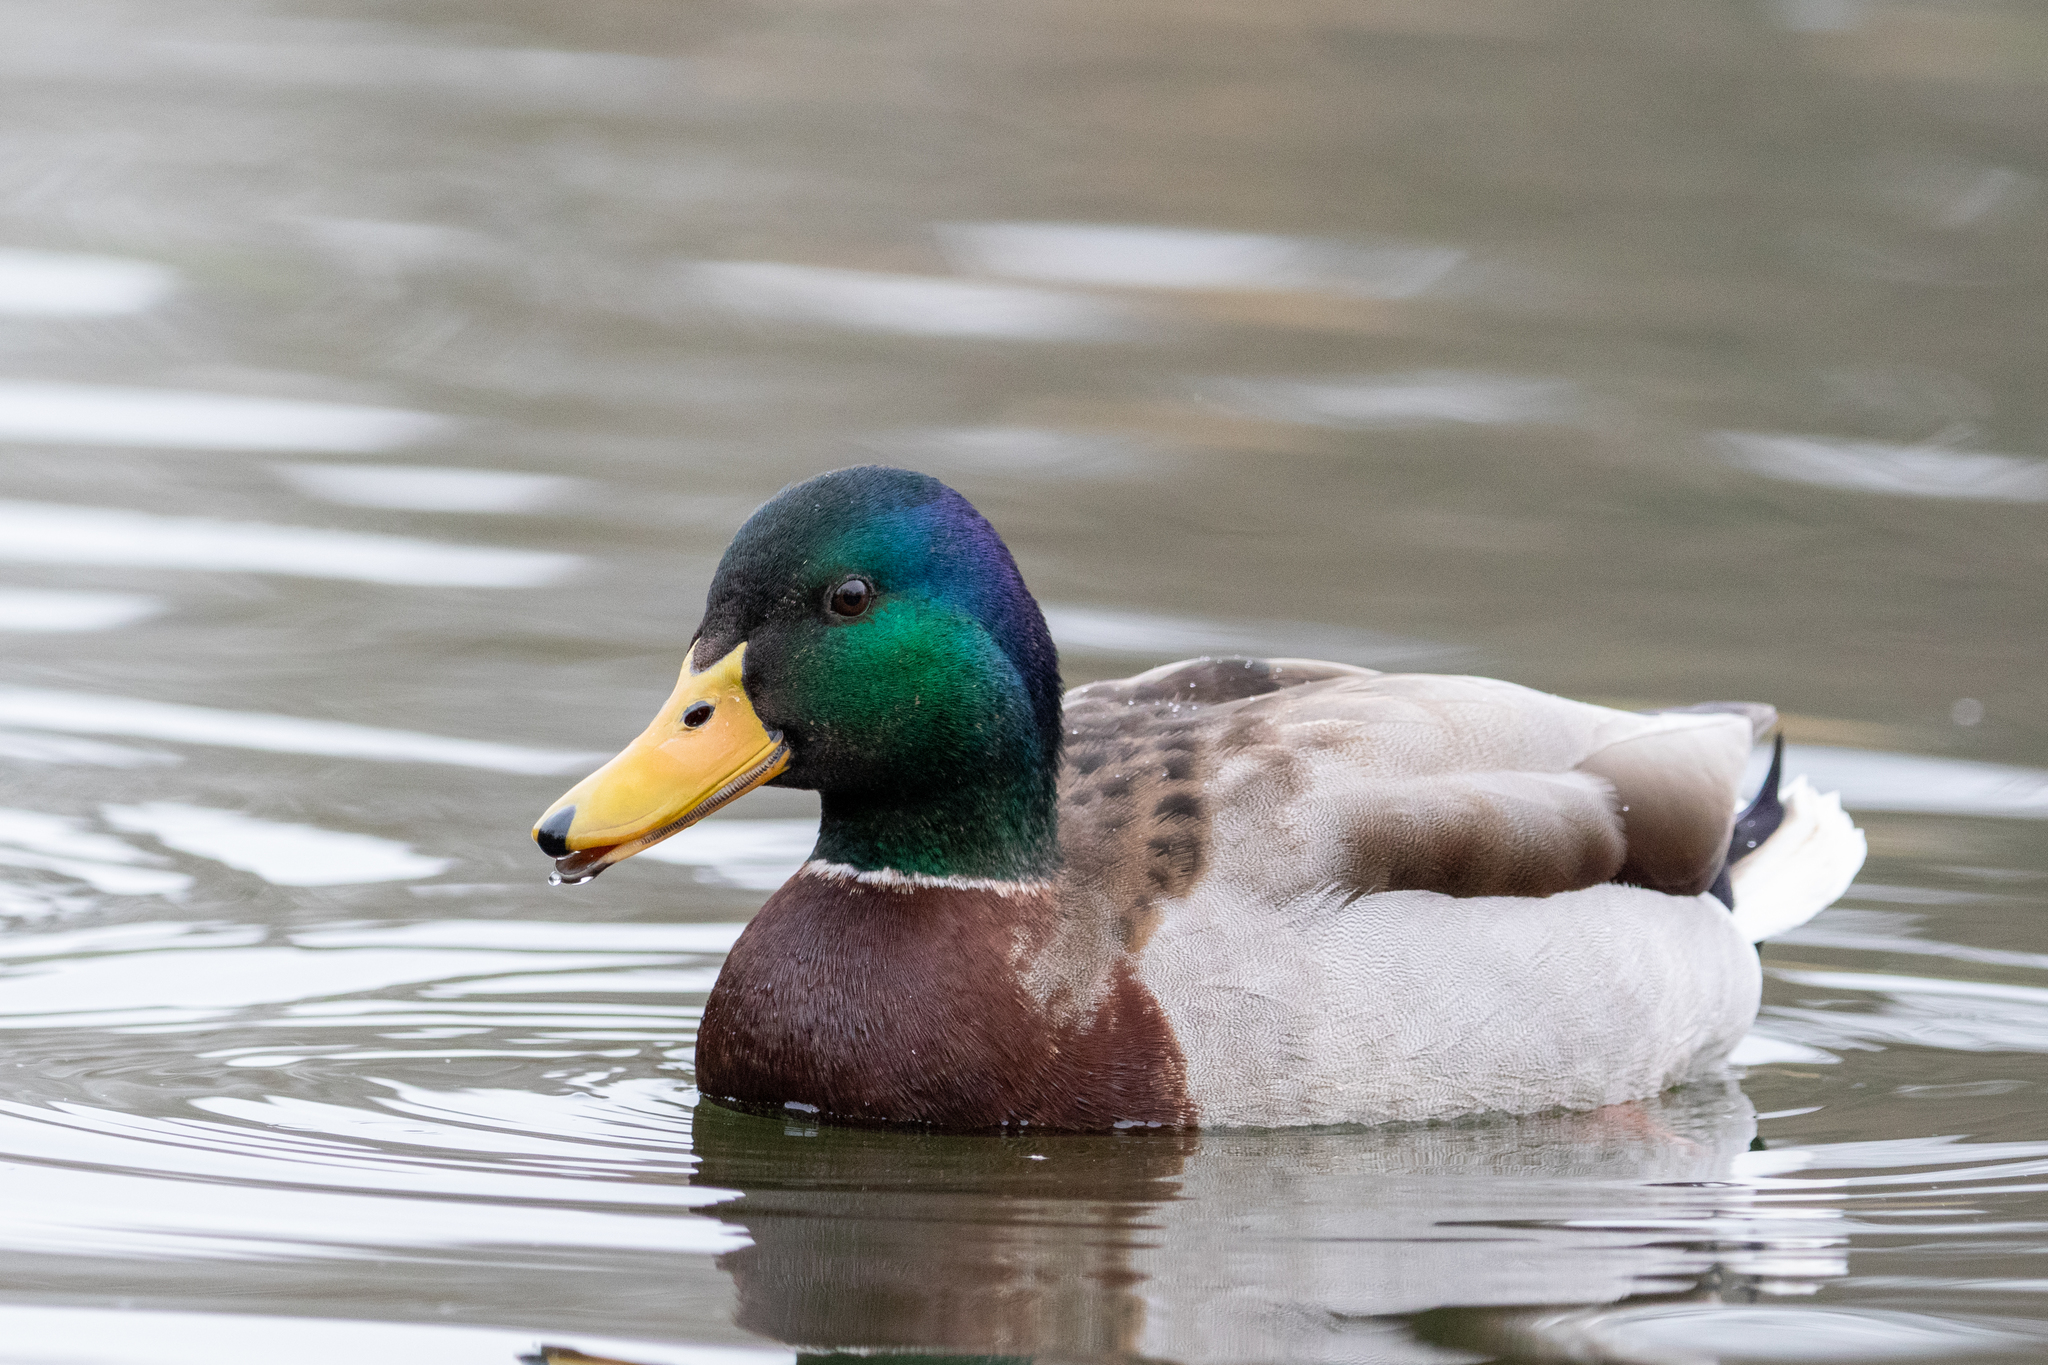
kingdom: Animalia
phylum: Chordata
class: Aves
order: Anseriformes
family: Anatidae
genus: Anas
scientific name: Anas platyrhynchos
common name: Mallard
